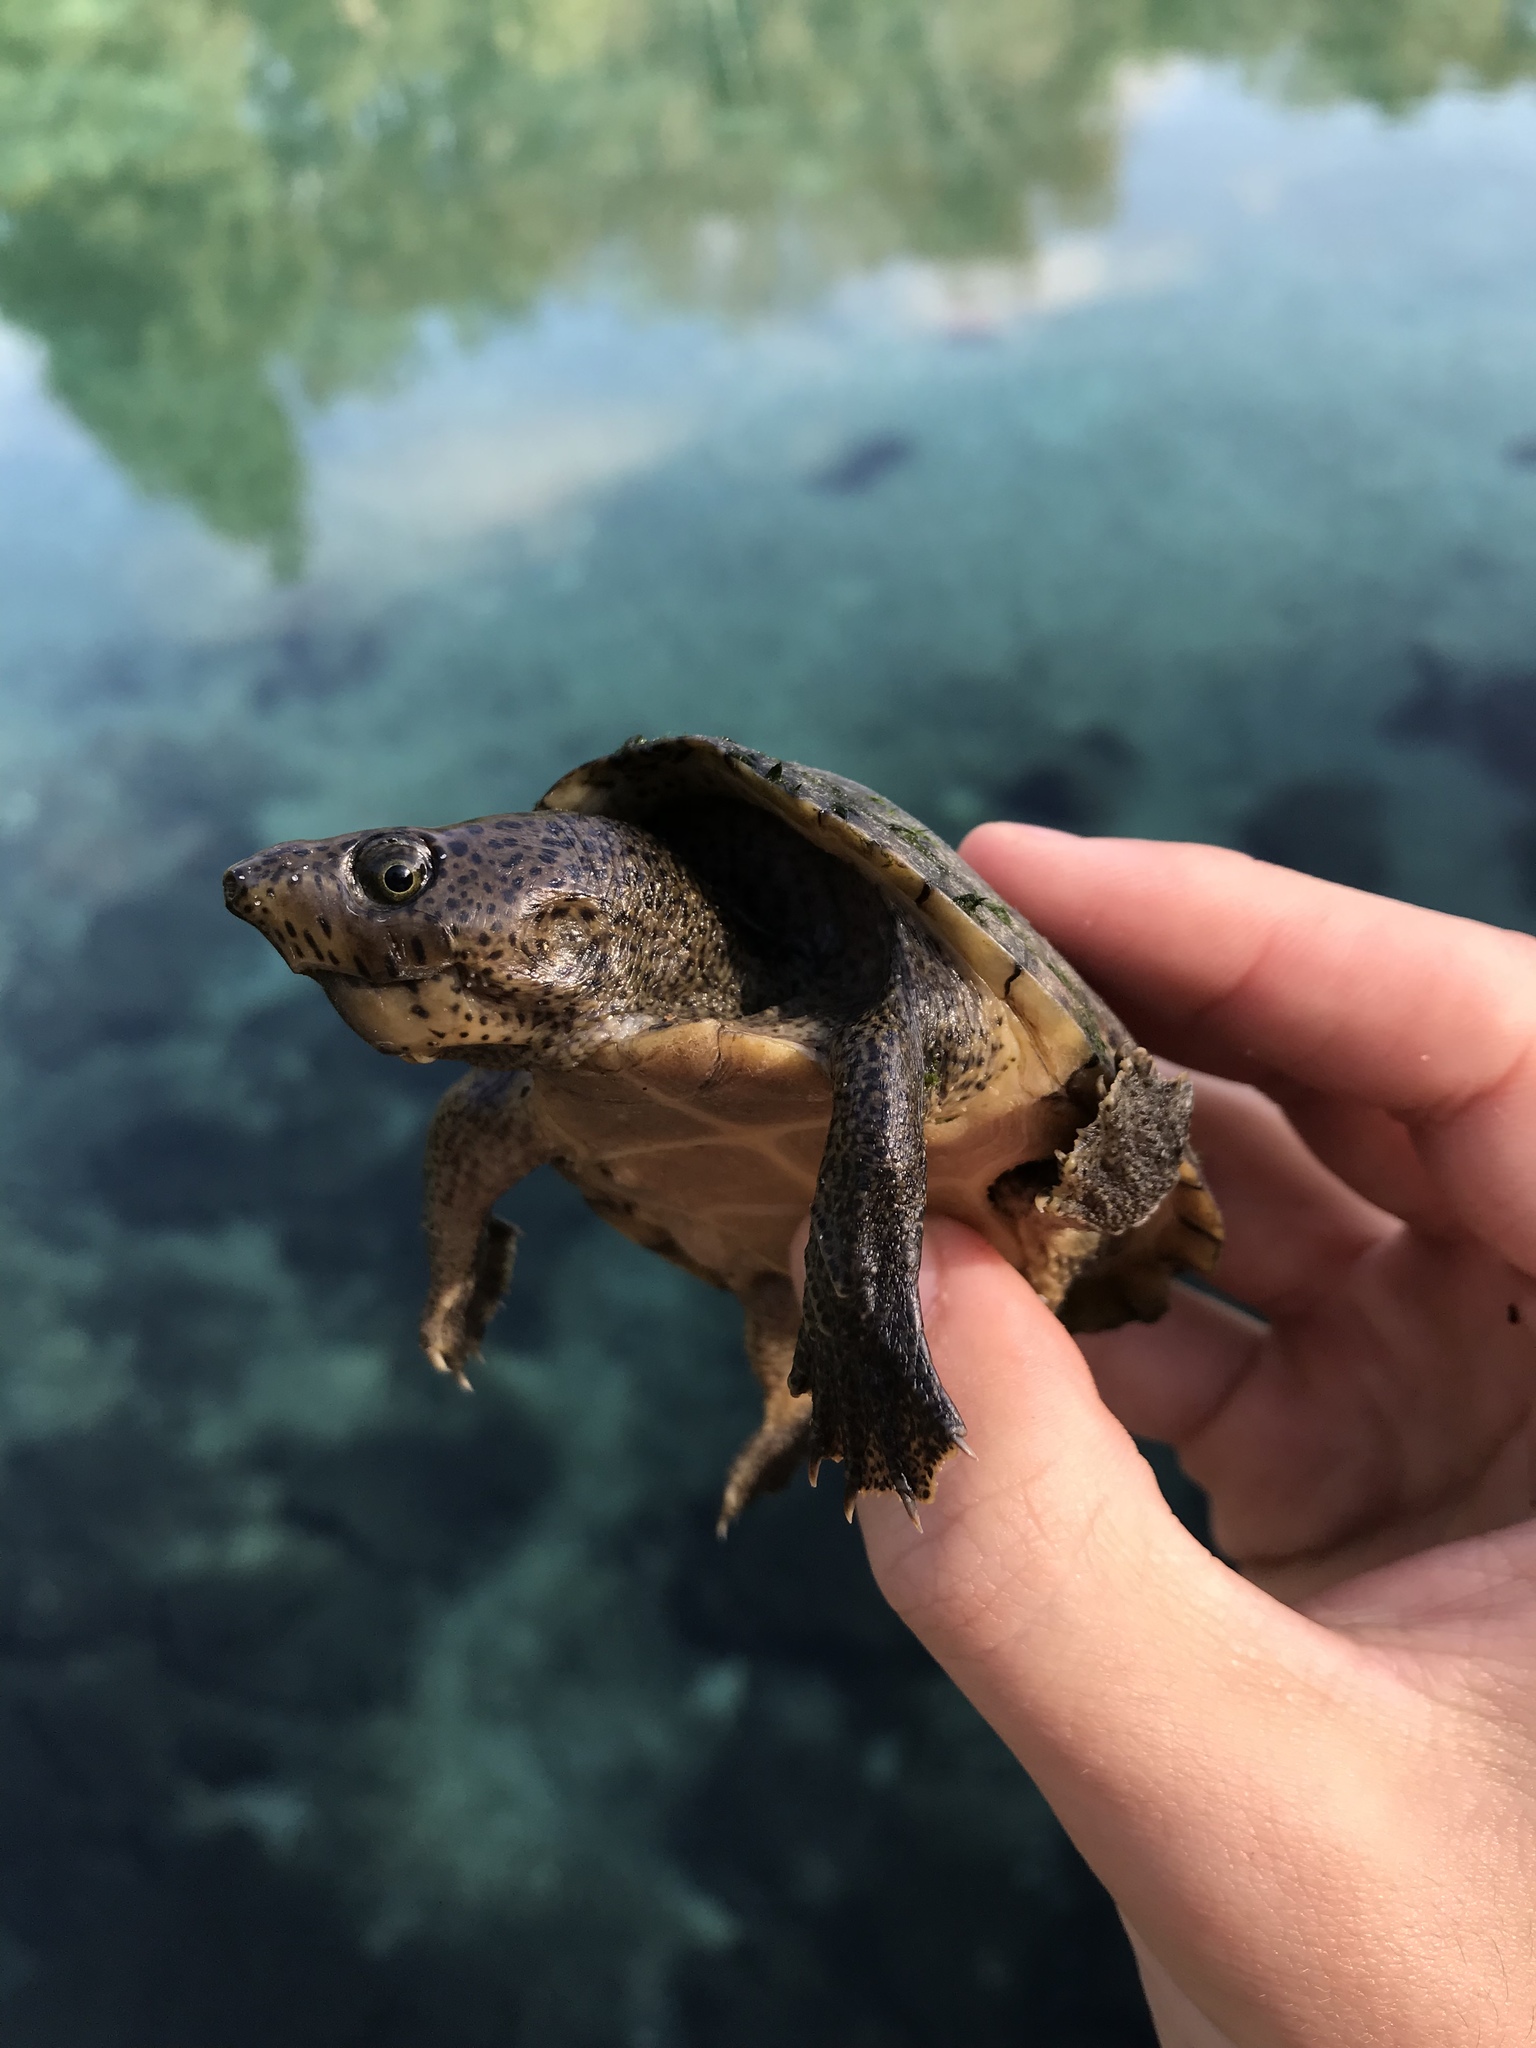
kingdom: Animalia
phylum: Chordata
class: Testudines
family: Kinosternidae
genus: Sternotherus
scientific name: Sternotherus minor
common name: Loggerhead musk turtle
